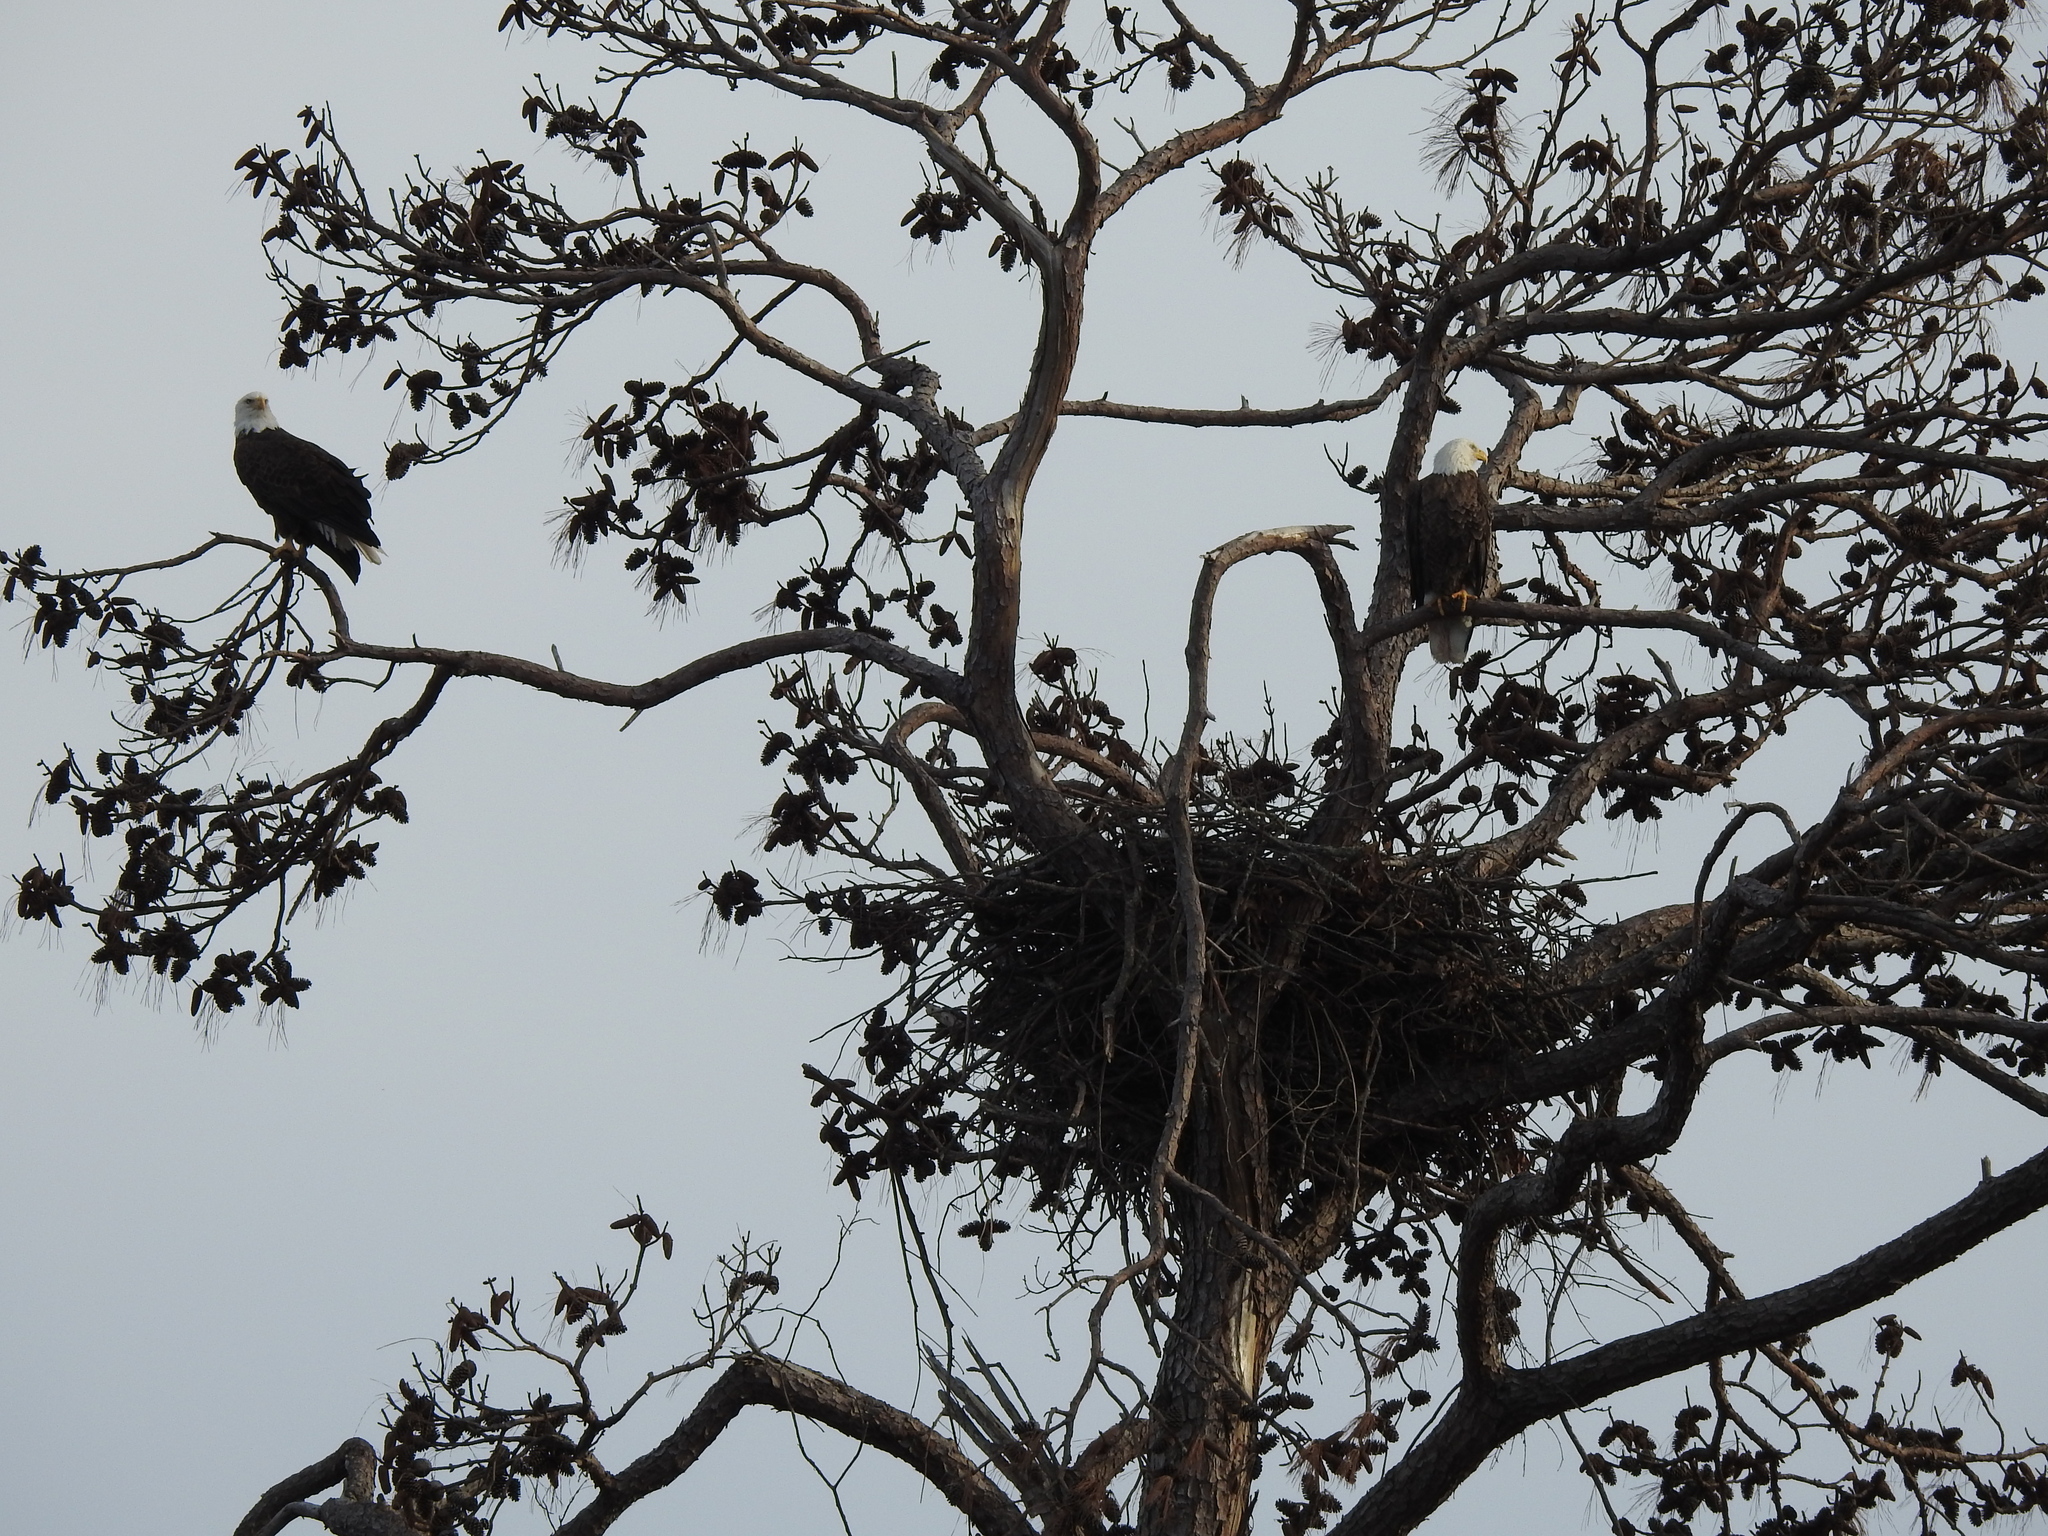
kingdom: Animalia
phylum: Chordata
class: Aves
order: Accipitriformes
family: Accipitridae
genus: Haliaeetus
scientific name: Haliaeetus leucocephalus
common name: Bald eagle
